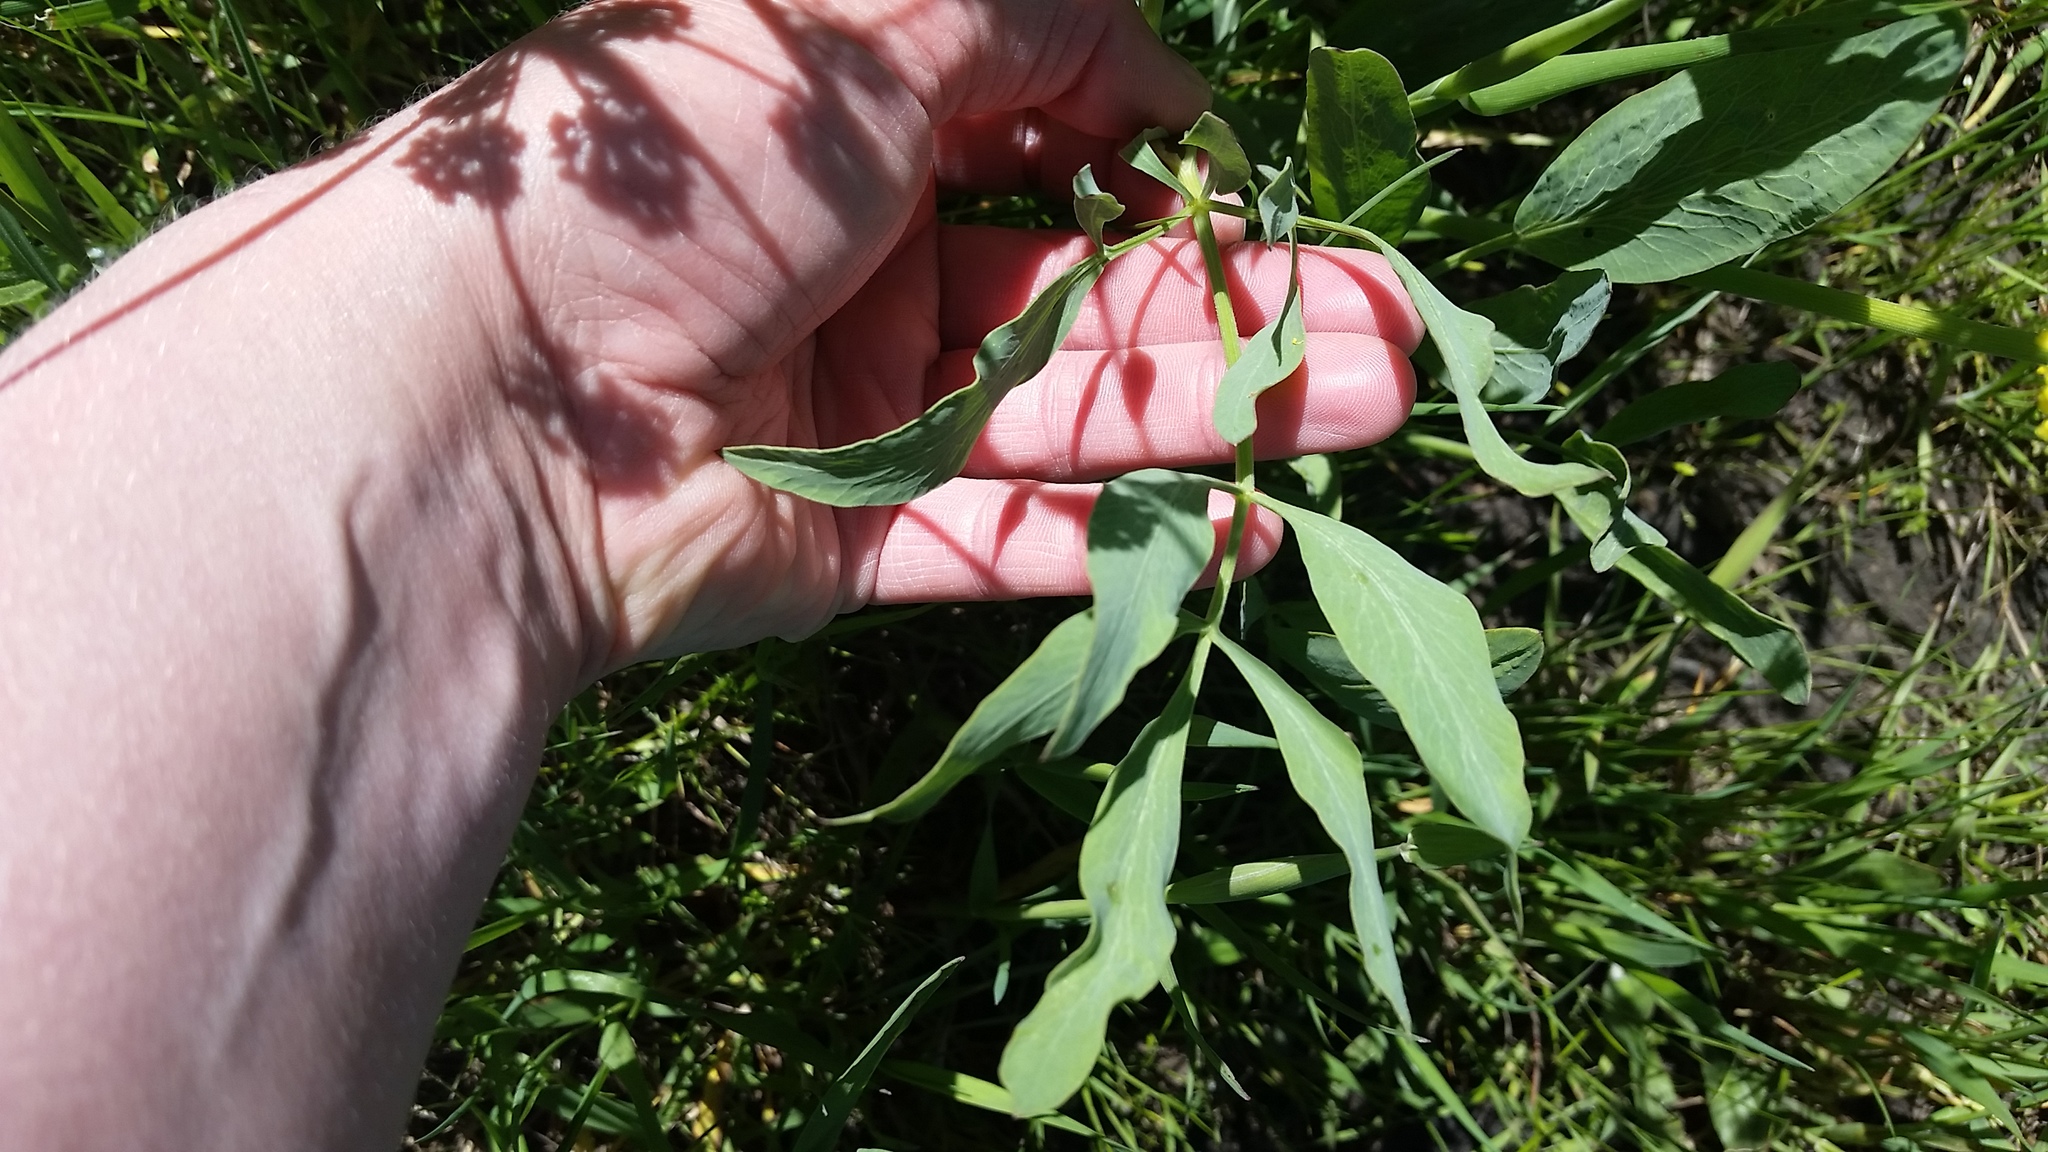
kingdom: Plantae
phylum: Tracheophyta
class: Magnoliopsida
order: Apiales
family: Apiaceae
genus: Lomatium
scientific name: Lomatium nudicaule
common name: Pestle lomatium
